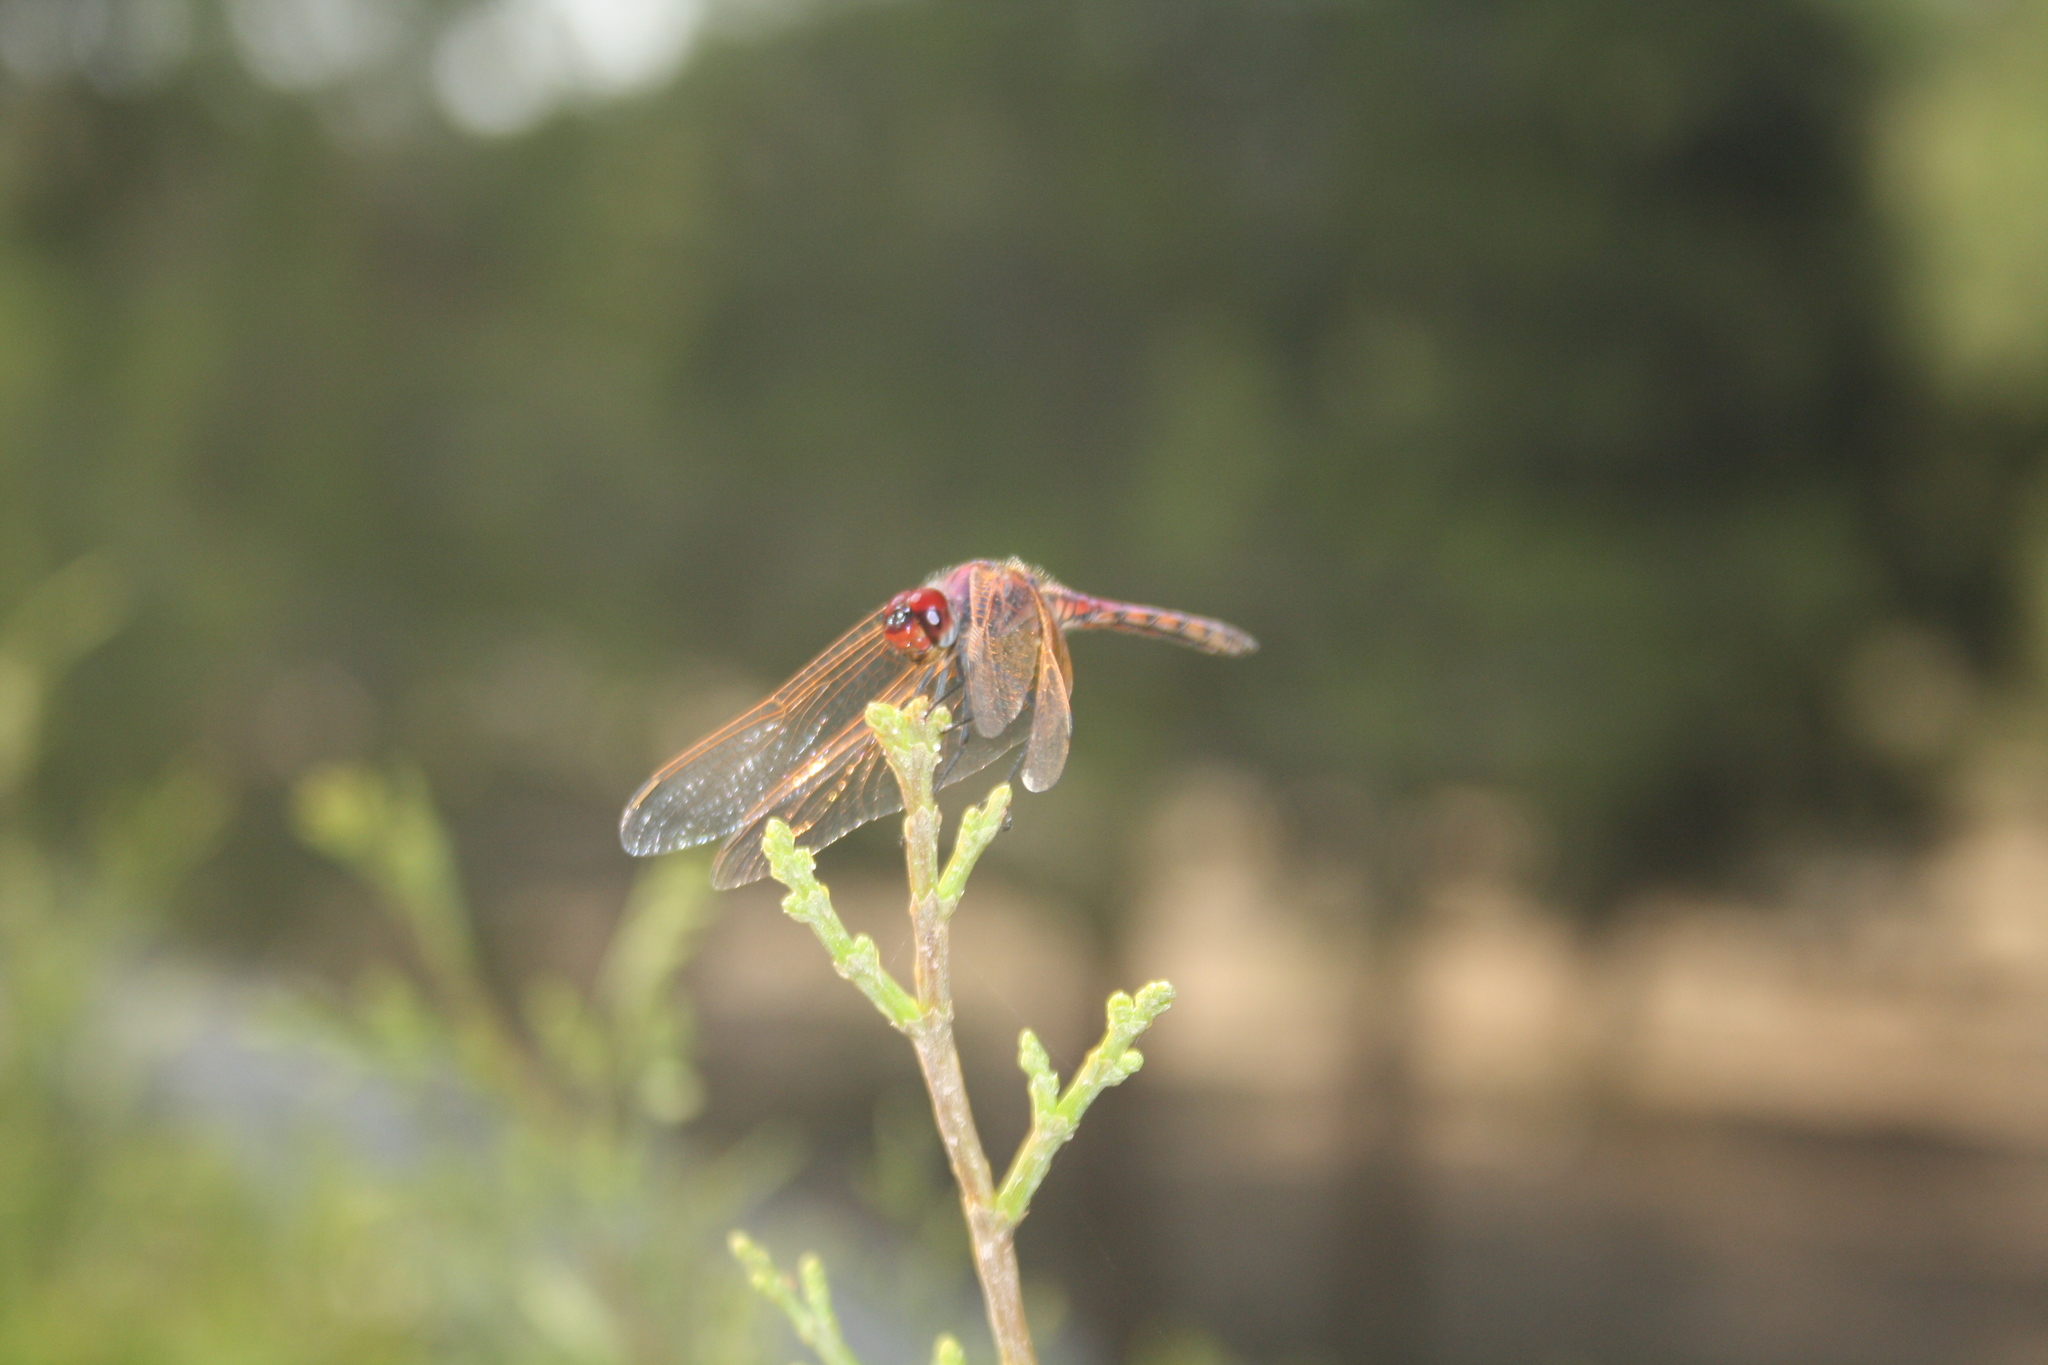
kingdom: Animalia
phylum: Arthropoda
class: Insecta
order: Odonata
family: Libellulidae
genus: Trithemis
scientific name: Trithemis arteriosa
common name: Red-veined dropwing
